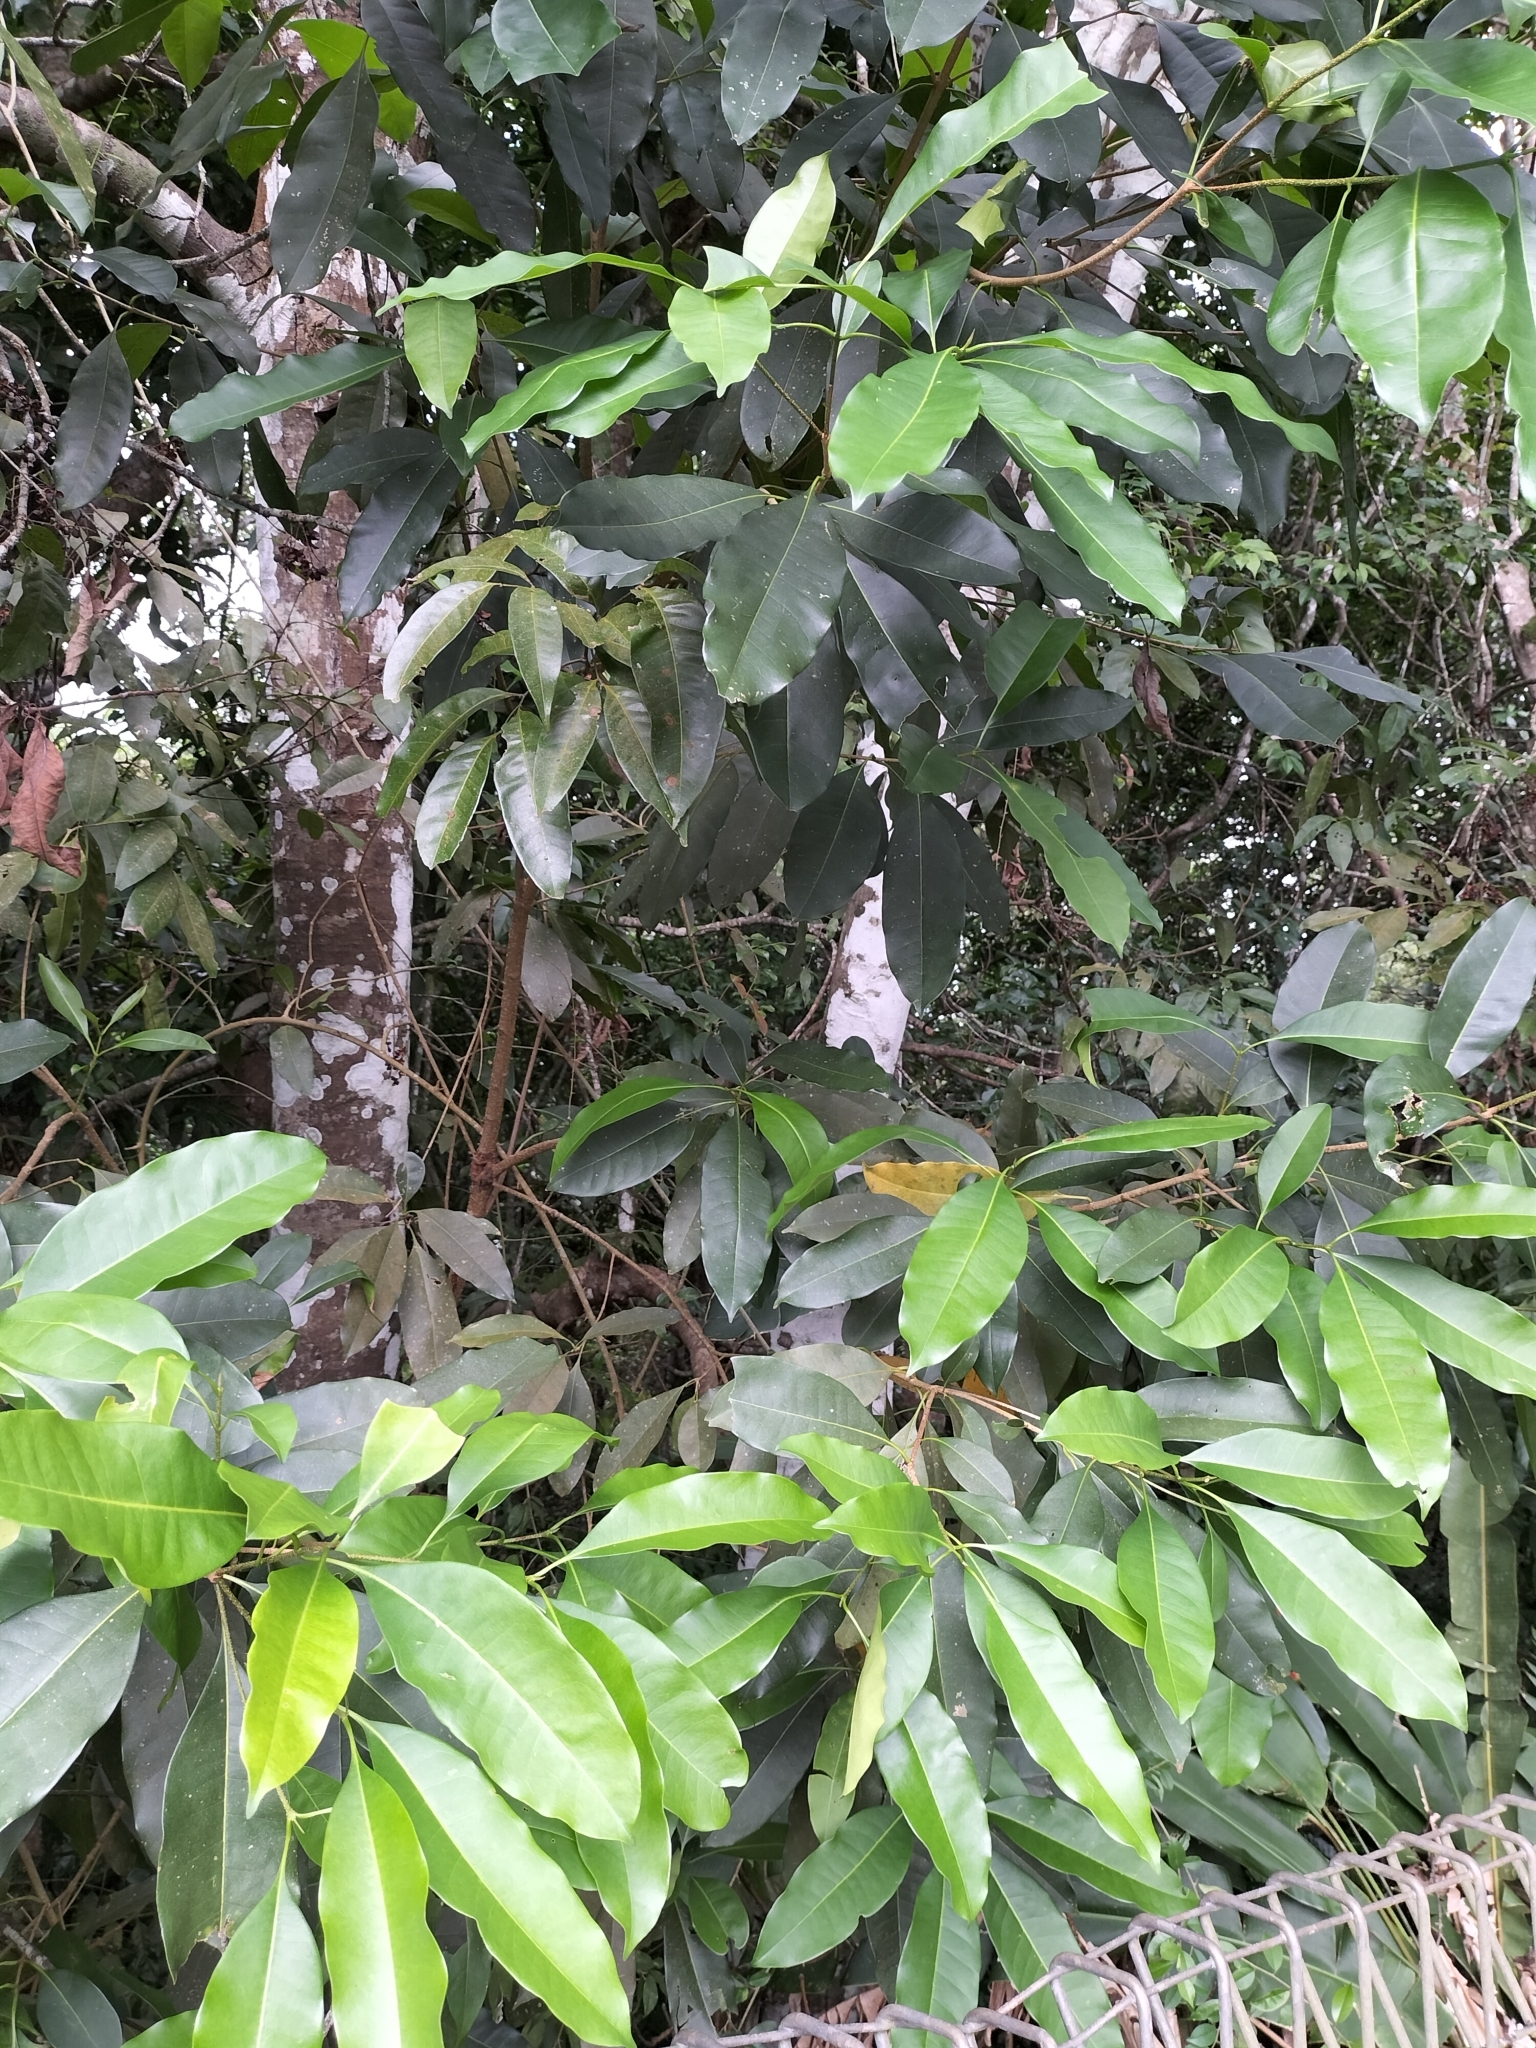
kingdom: Plantae
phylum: Tracheophyta
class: Magnoliopsida
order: Lamiales
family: Oleaceae
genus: Chionanthus
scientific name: Chionanthus ramiflorus
